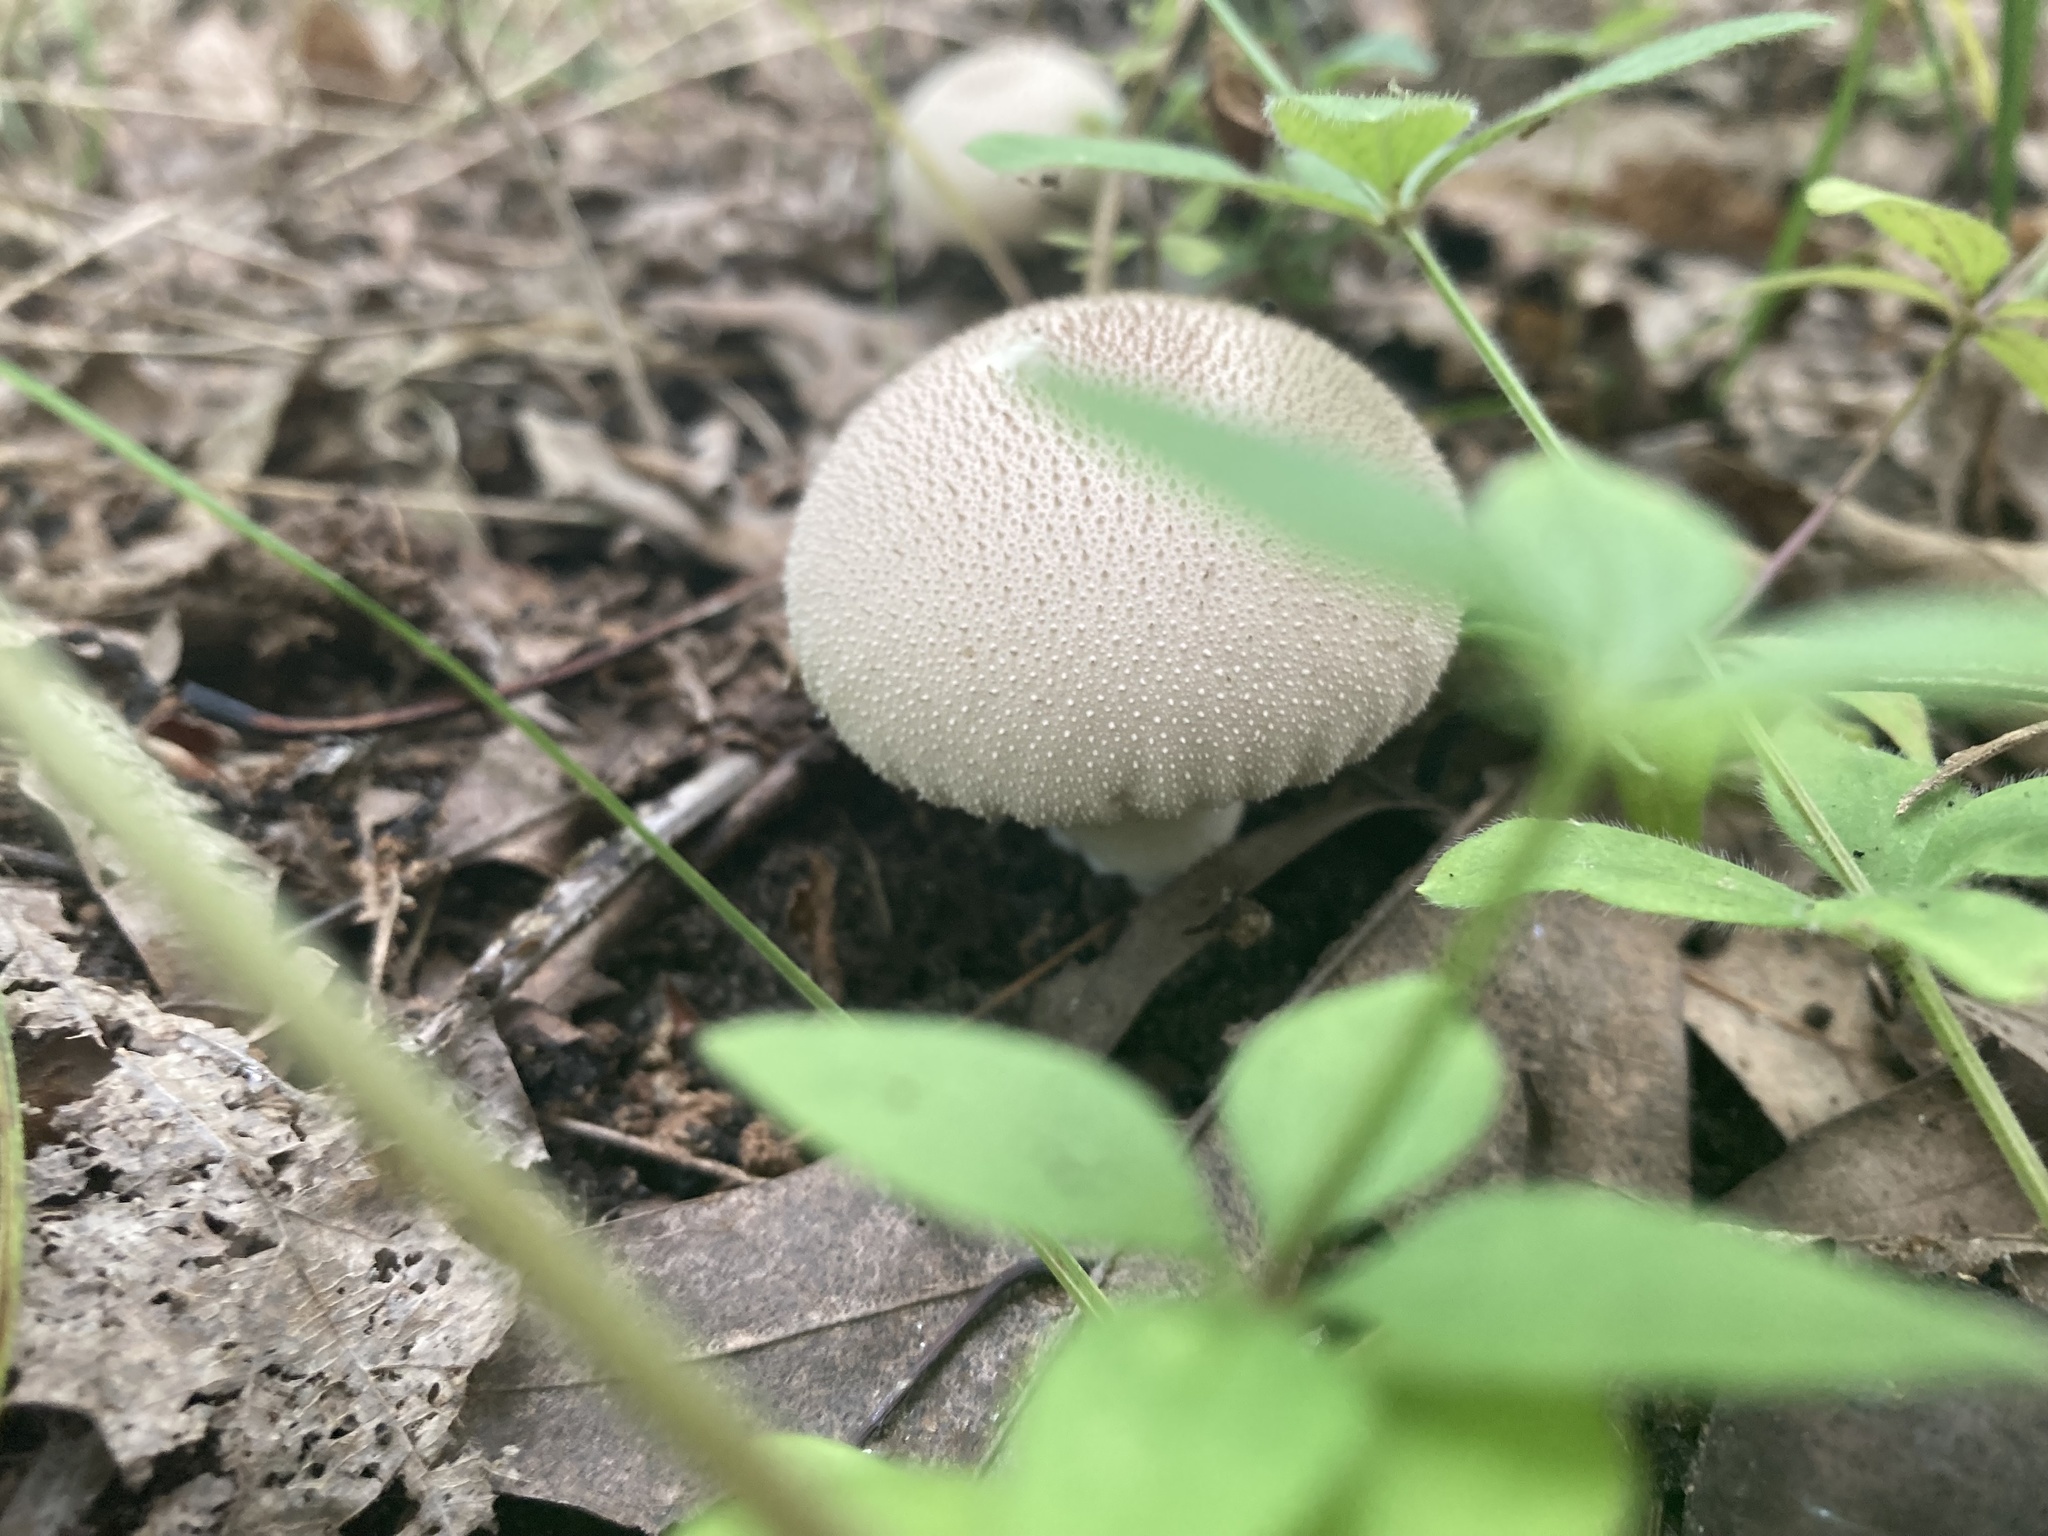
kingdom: Fungi
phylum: Basidiomycota
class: Agaricomycetes
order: Agaricales
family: Lycoperdaceae
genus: Lycoperdon
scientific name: Lycoperdon perlatum
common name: Common puffball
